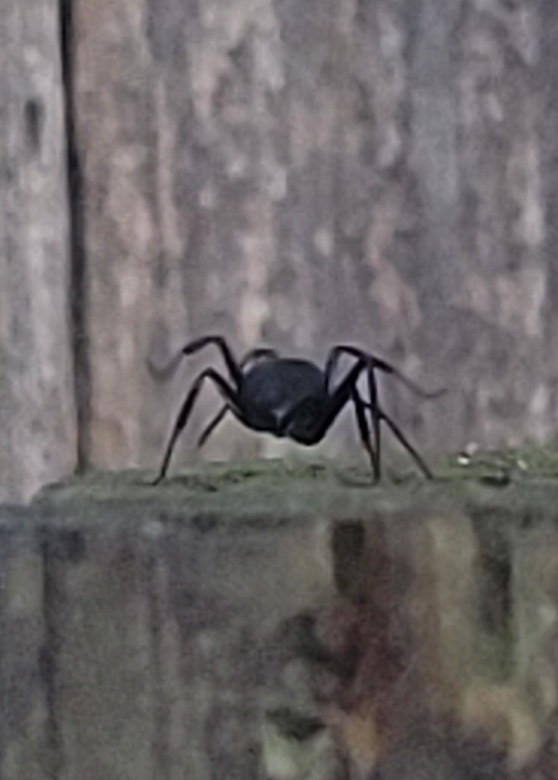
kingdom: Animalia
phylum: Arthropoda
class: Insecta
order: Hymenoptera
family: Formicidae
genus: Camponotus
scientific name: Camponotus pennsylvanicus
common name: Black carpenter ant
